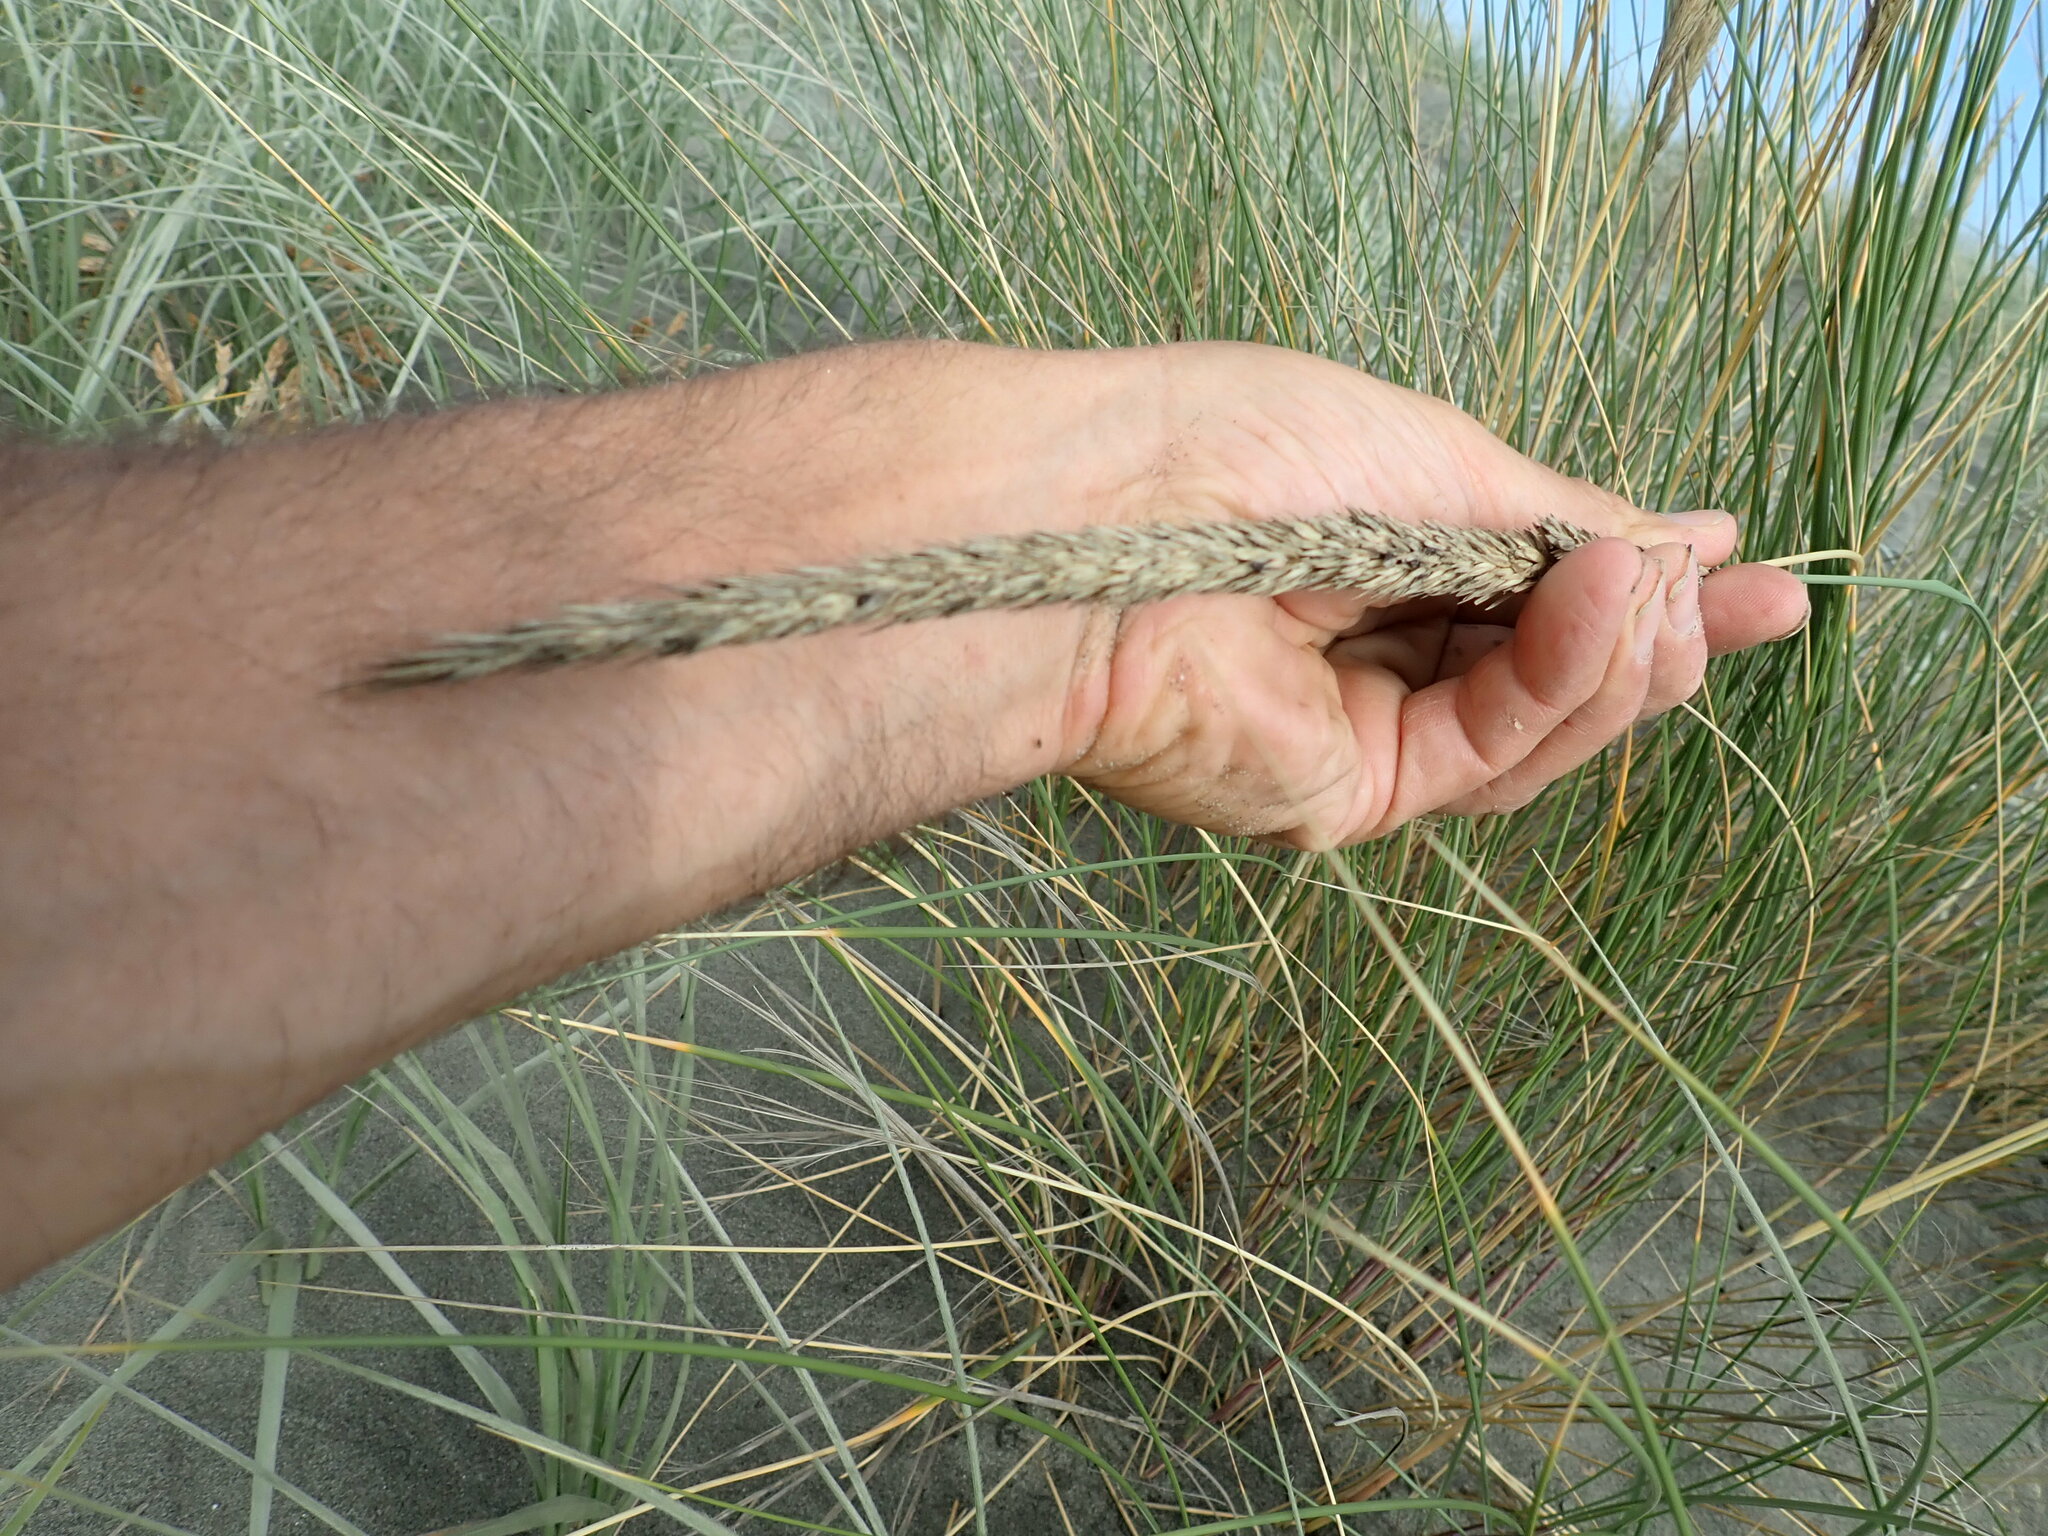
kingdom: Plantae
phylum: Tracheophyta
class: Liliopsida
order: Poales
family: Poaceae
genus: Calamagrostis
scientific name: Calamagrostis arenaria
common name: European beachgrass
